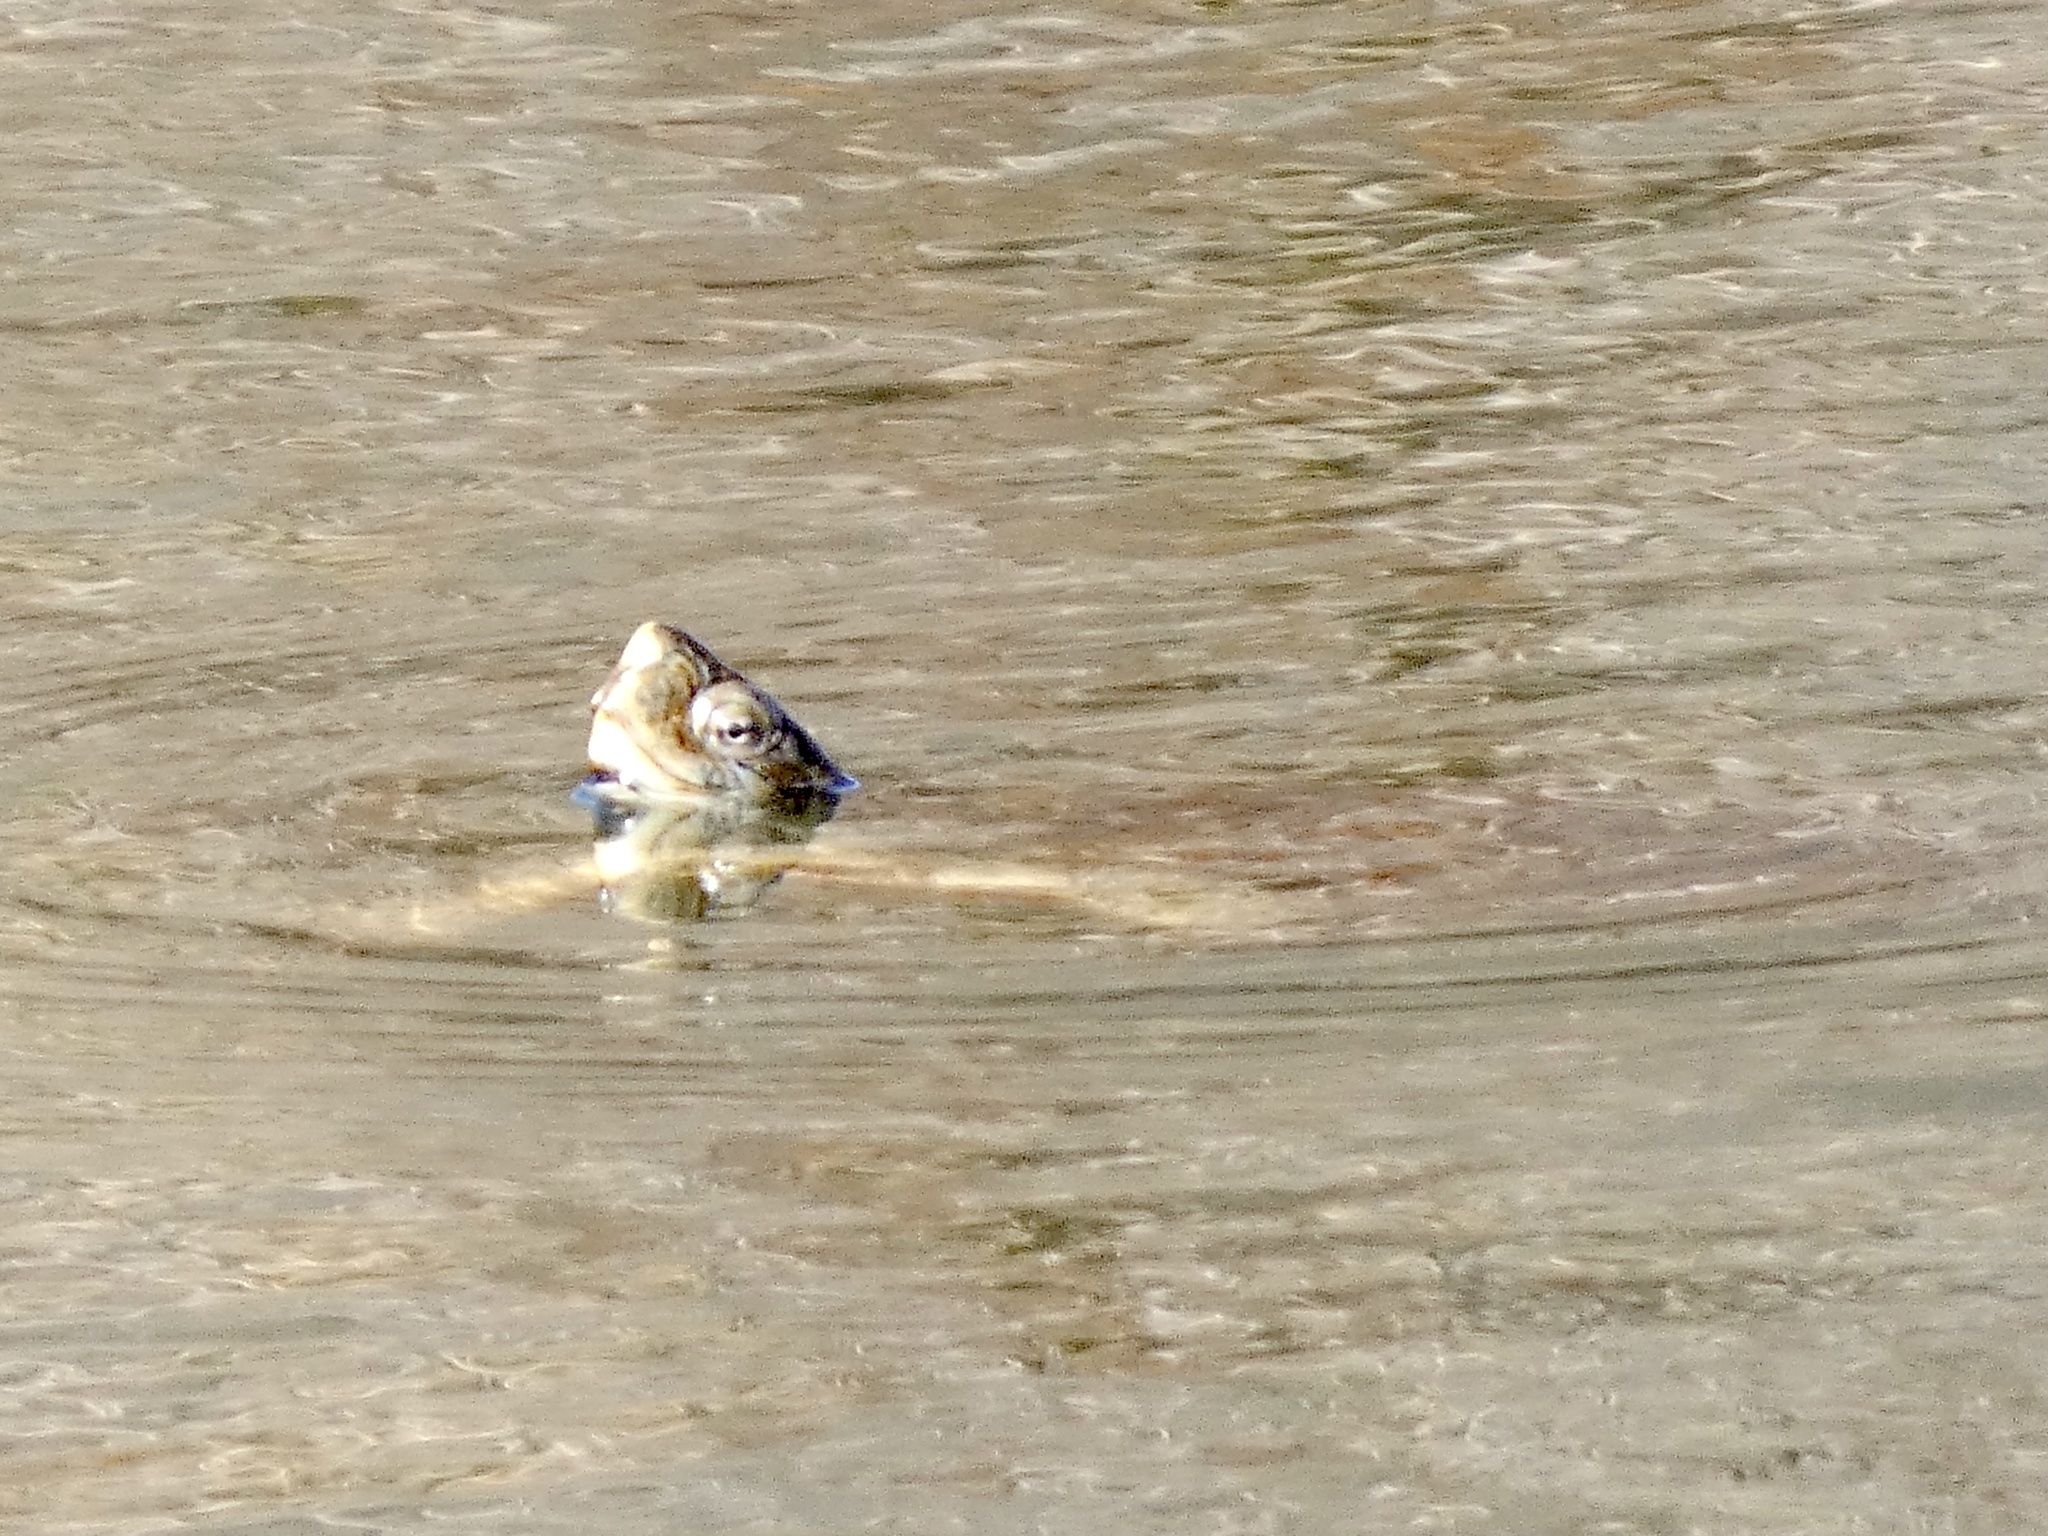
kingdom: Animalia
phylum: Chordata
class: Testudines
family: Emydidae
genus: Actinemys
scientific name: Actinemys marmorata
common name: Western pond turtle
